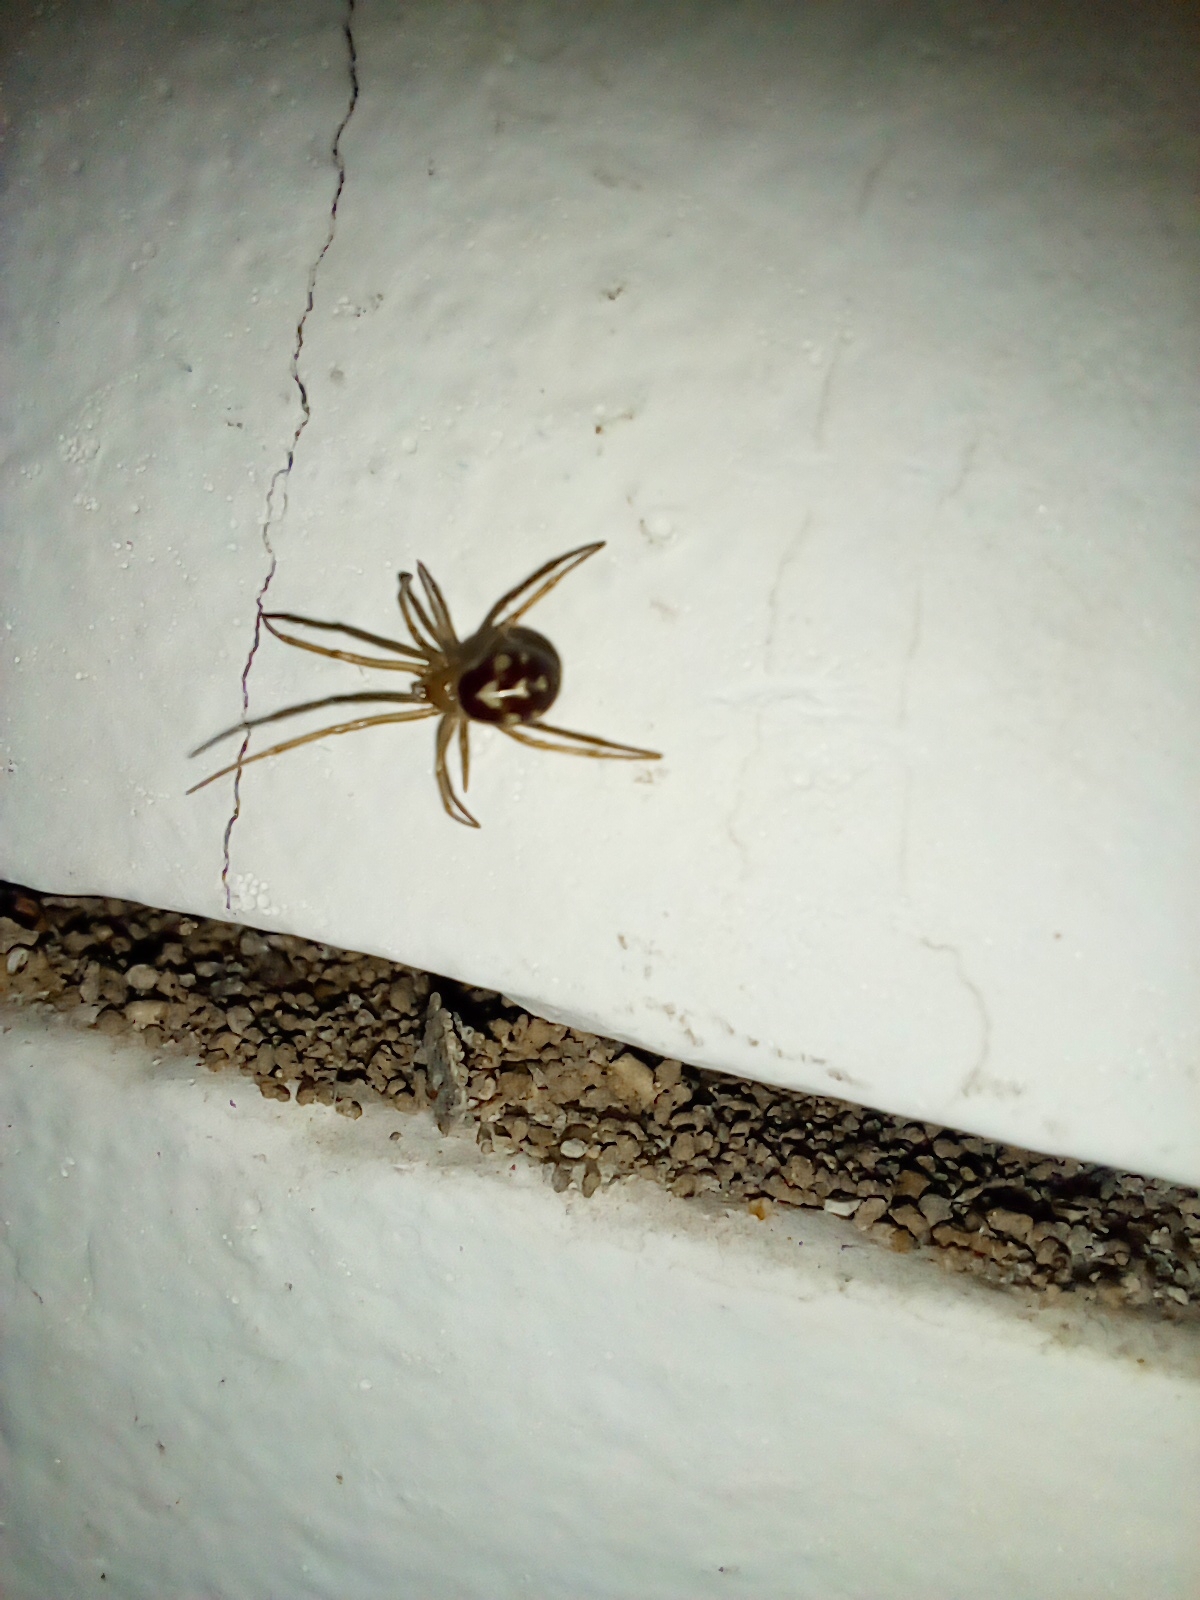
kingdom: Animalia
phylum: Arthropoda
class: Arachnida
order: Araneae
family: Theridiidae
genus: Steatoda
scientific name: Steatoda triangulosa
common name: Triangulate bud spider
